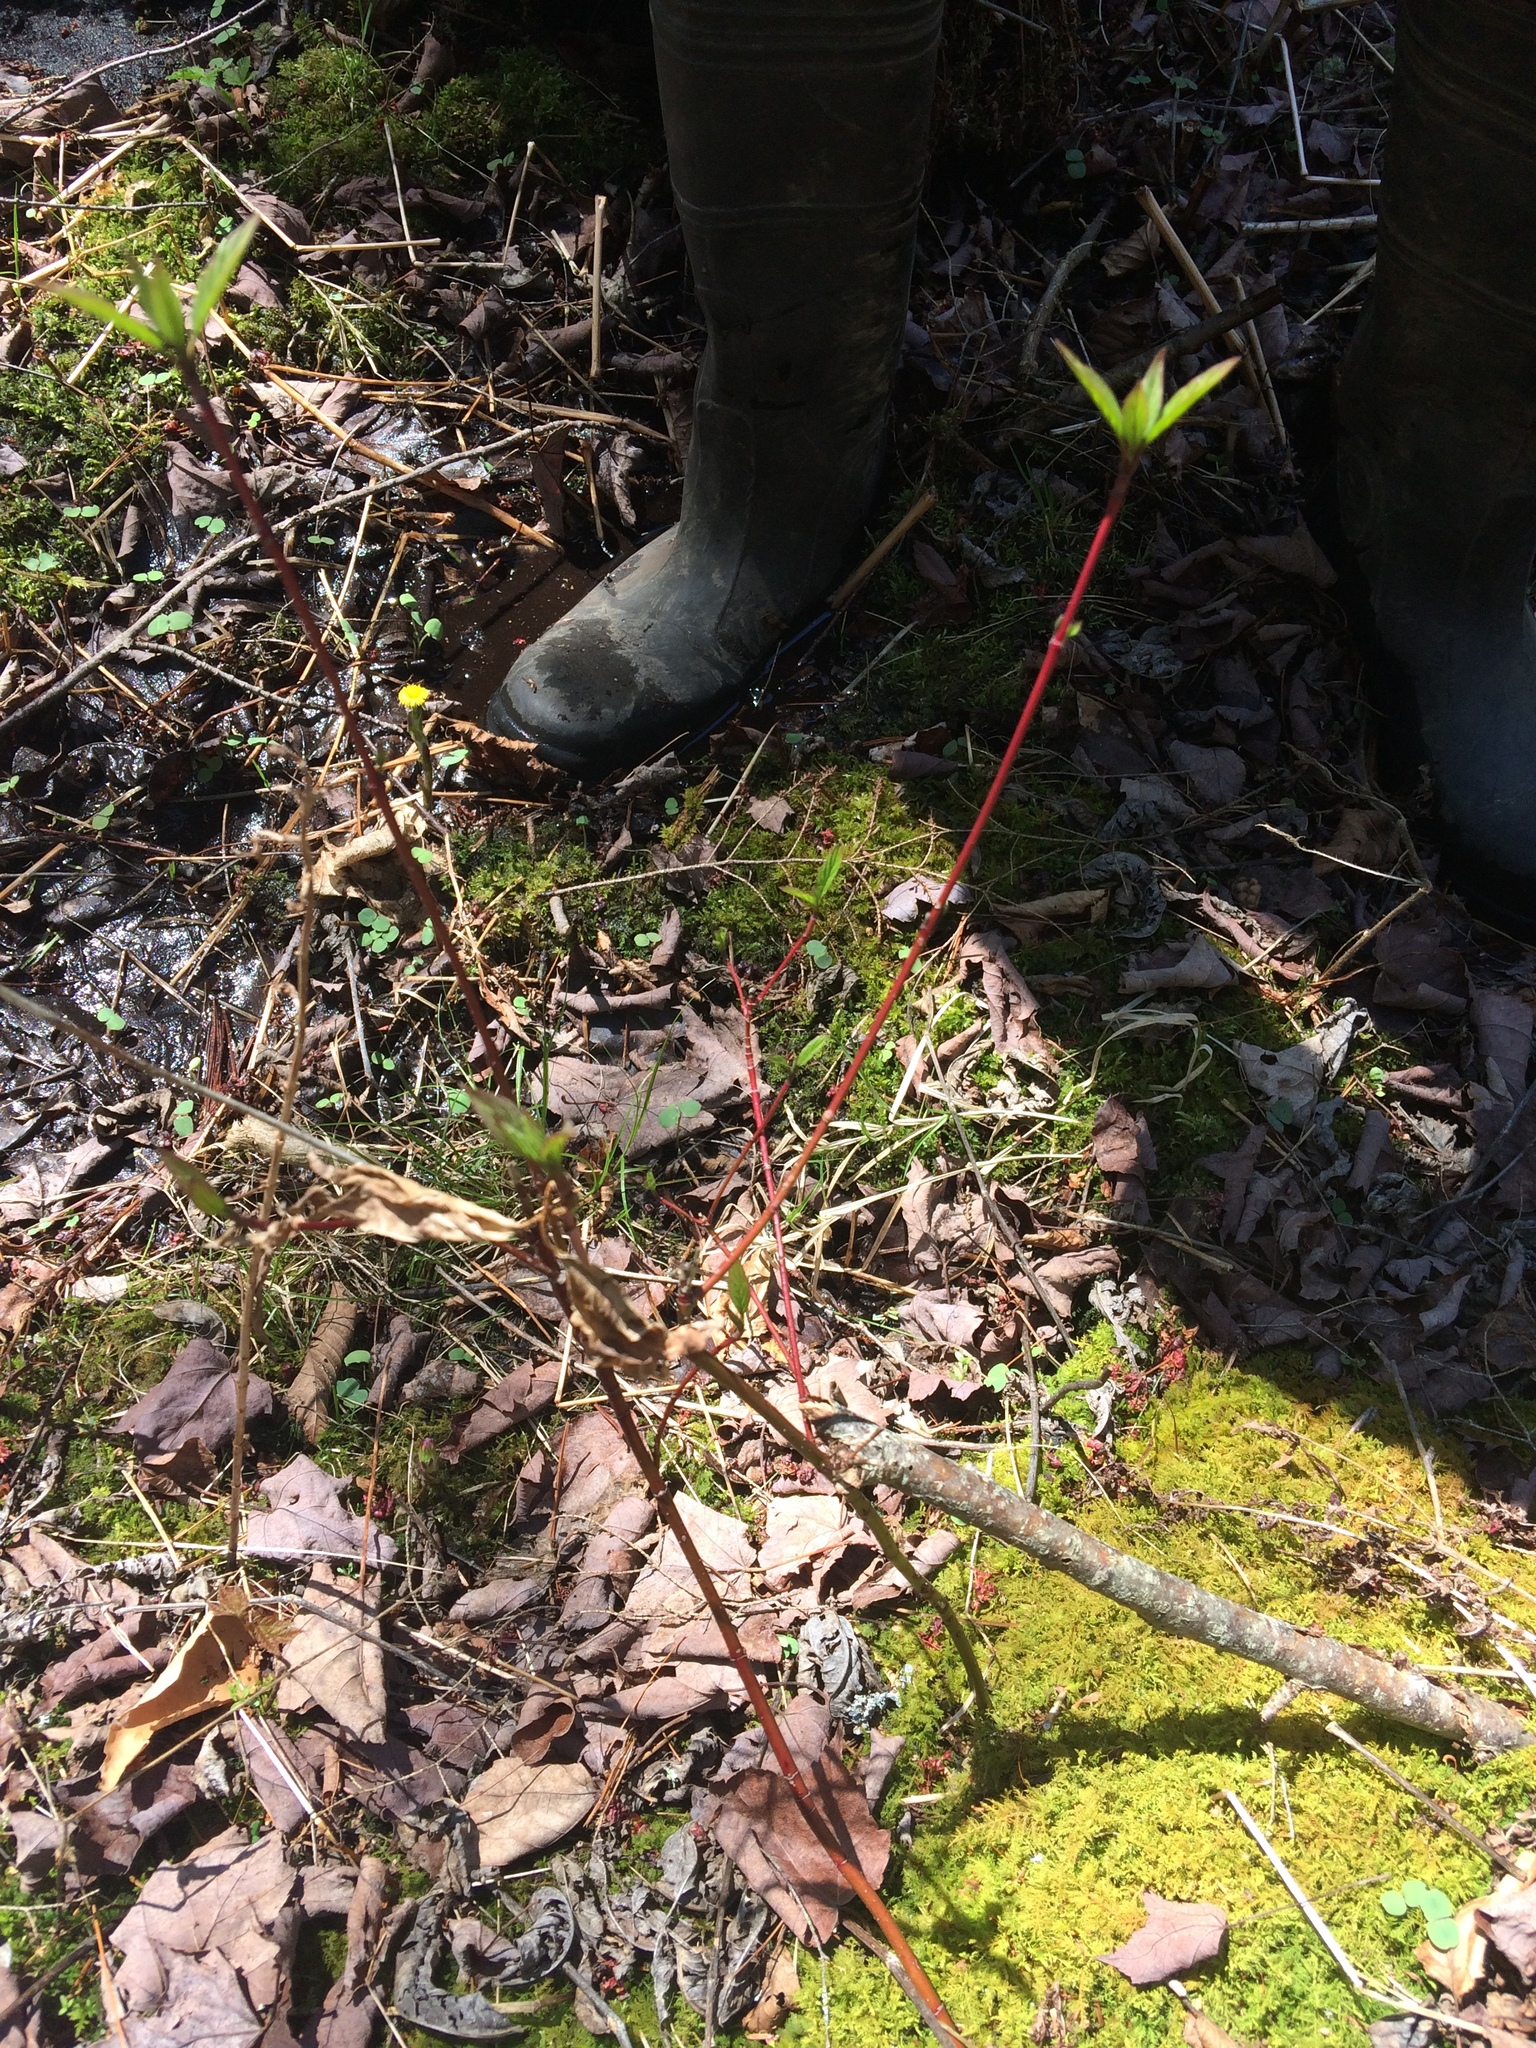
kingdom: Plantae
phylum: Tracheophyta
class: Magnoliopsida
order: Cornales
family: Cornaceae
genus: Cornus
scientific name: Cornus sericea
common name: Red-osier dogwood
